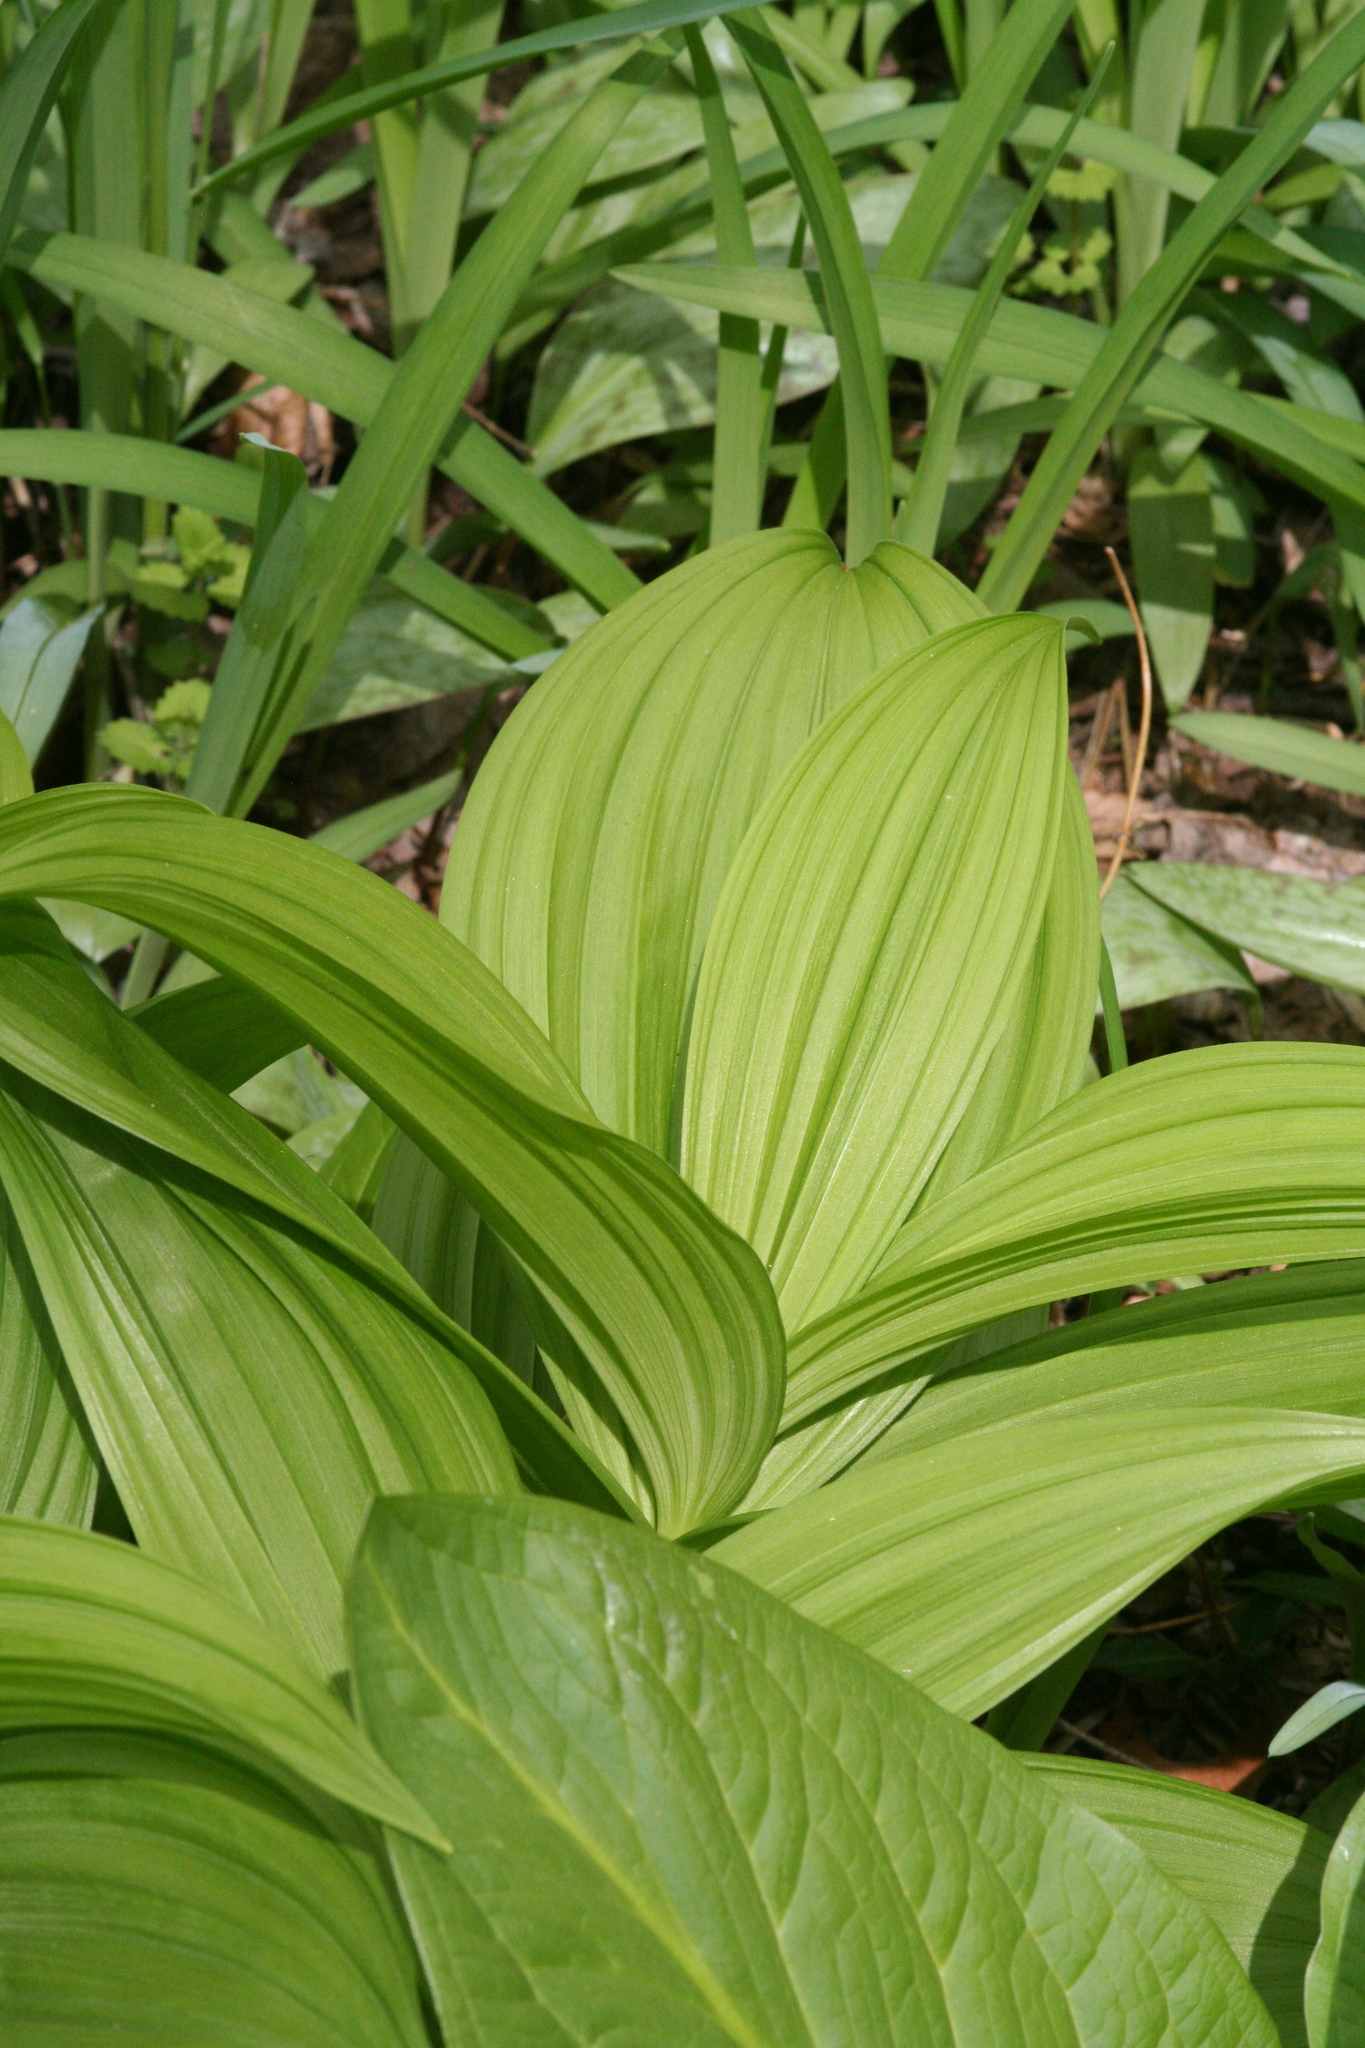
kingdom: Plantae
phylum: Tracheophyta
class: Liliopsida
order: Liliales
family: Melanthiaceae
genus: Veratrum
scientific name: Veratrum viride
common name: American false hellebore
